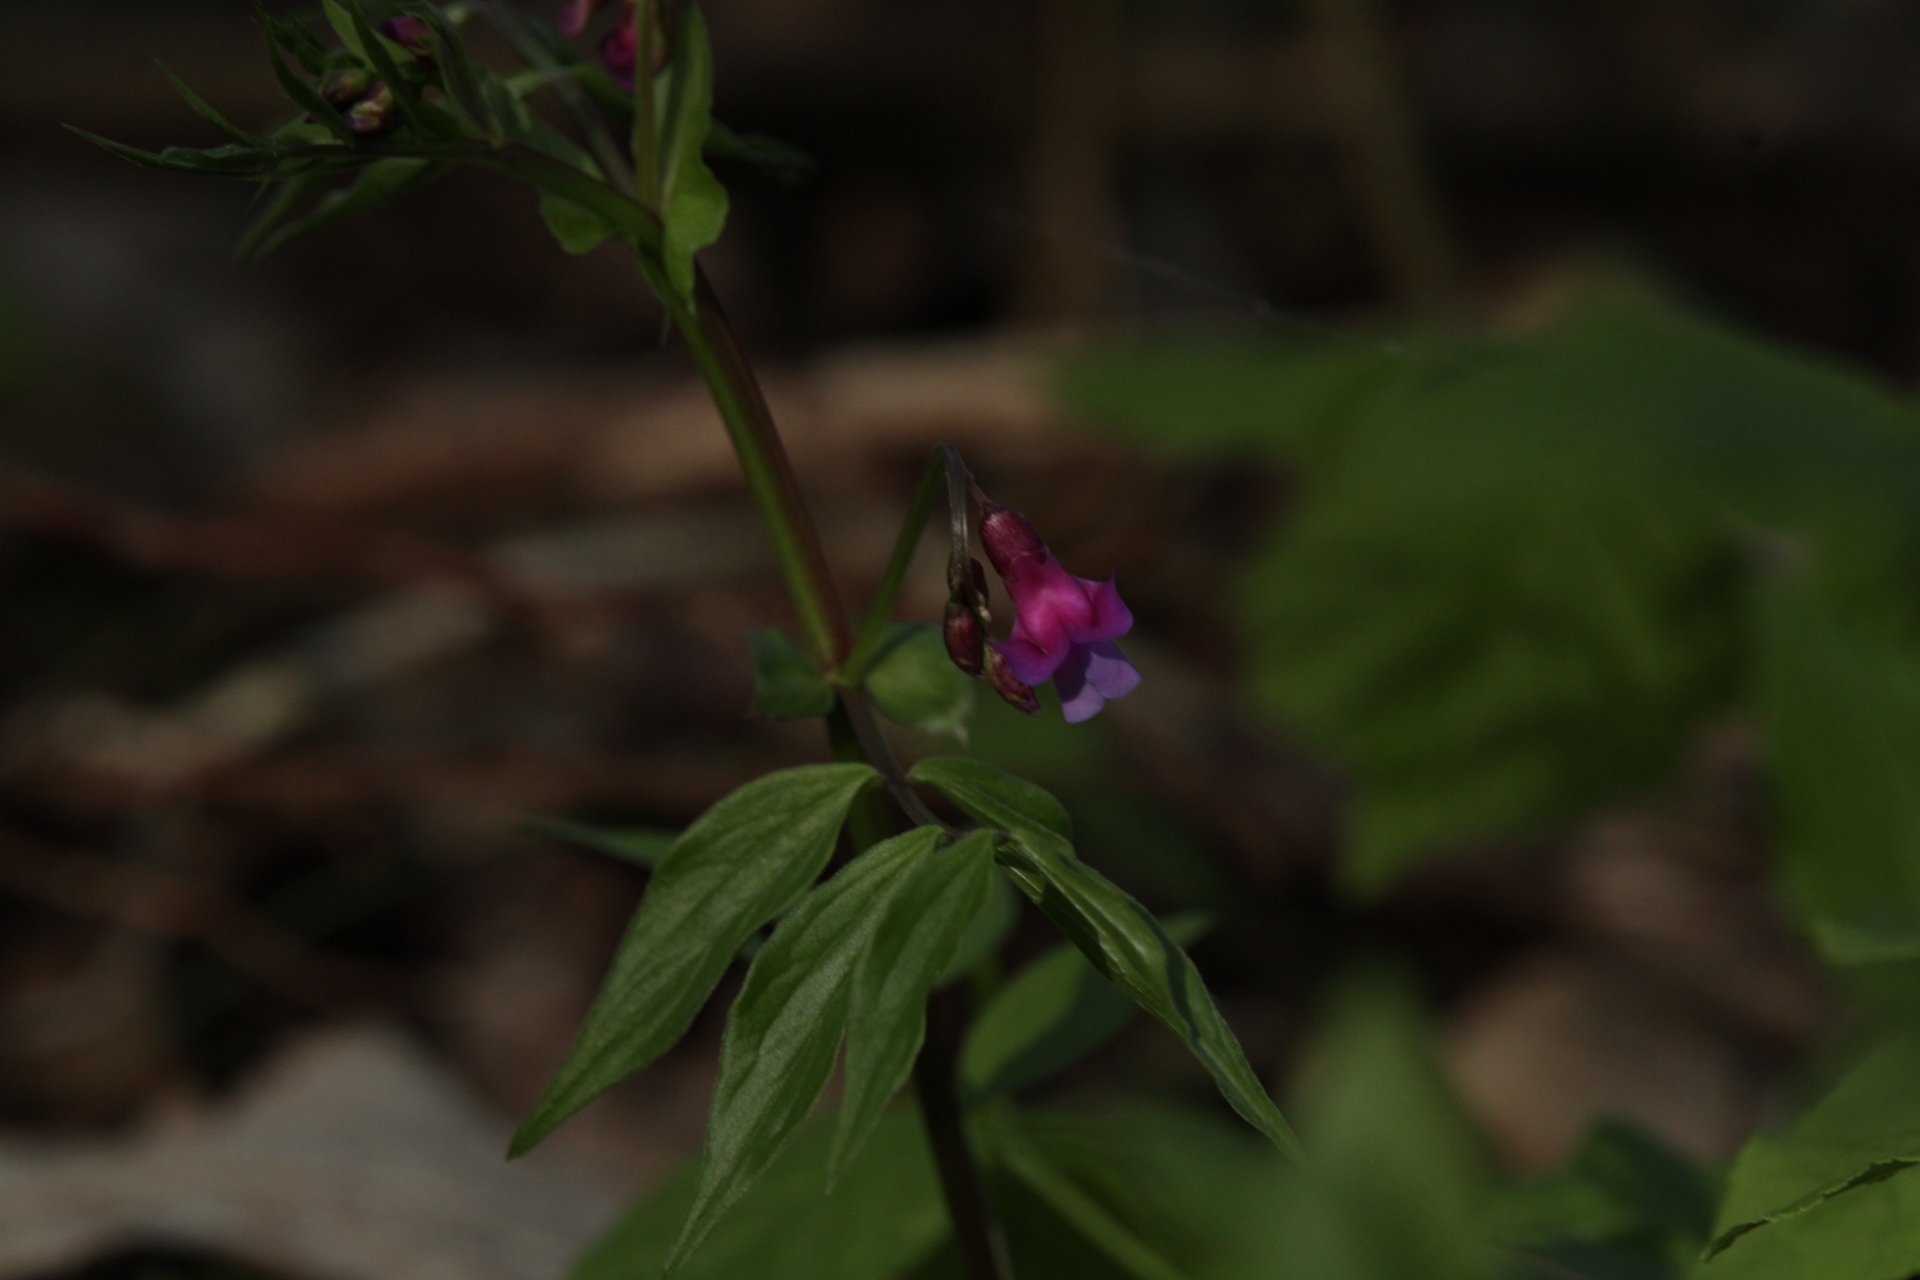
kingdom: Plantae
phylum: Tracheophyta
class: Magnoliopsida
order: Fabales
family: Fabaceae
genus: Lathyrus
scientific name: Lathyrus vernus
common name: Spring pea
